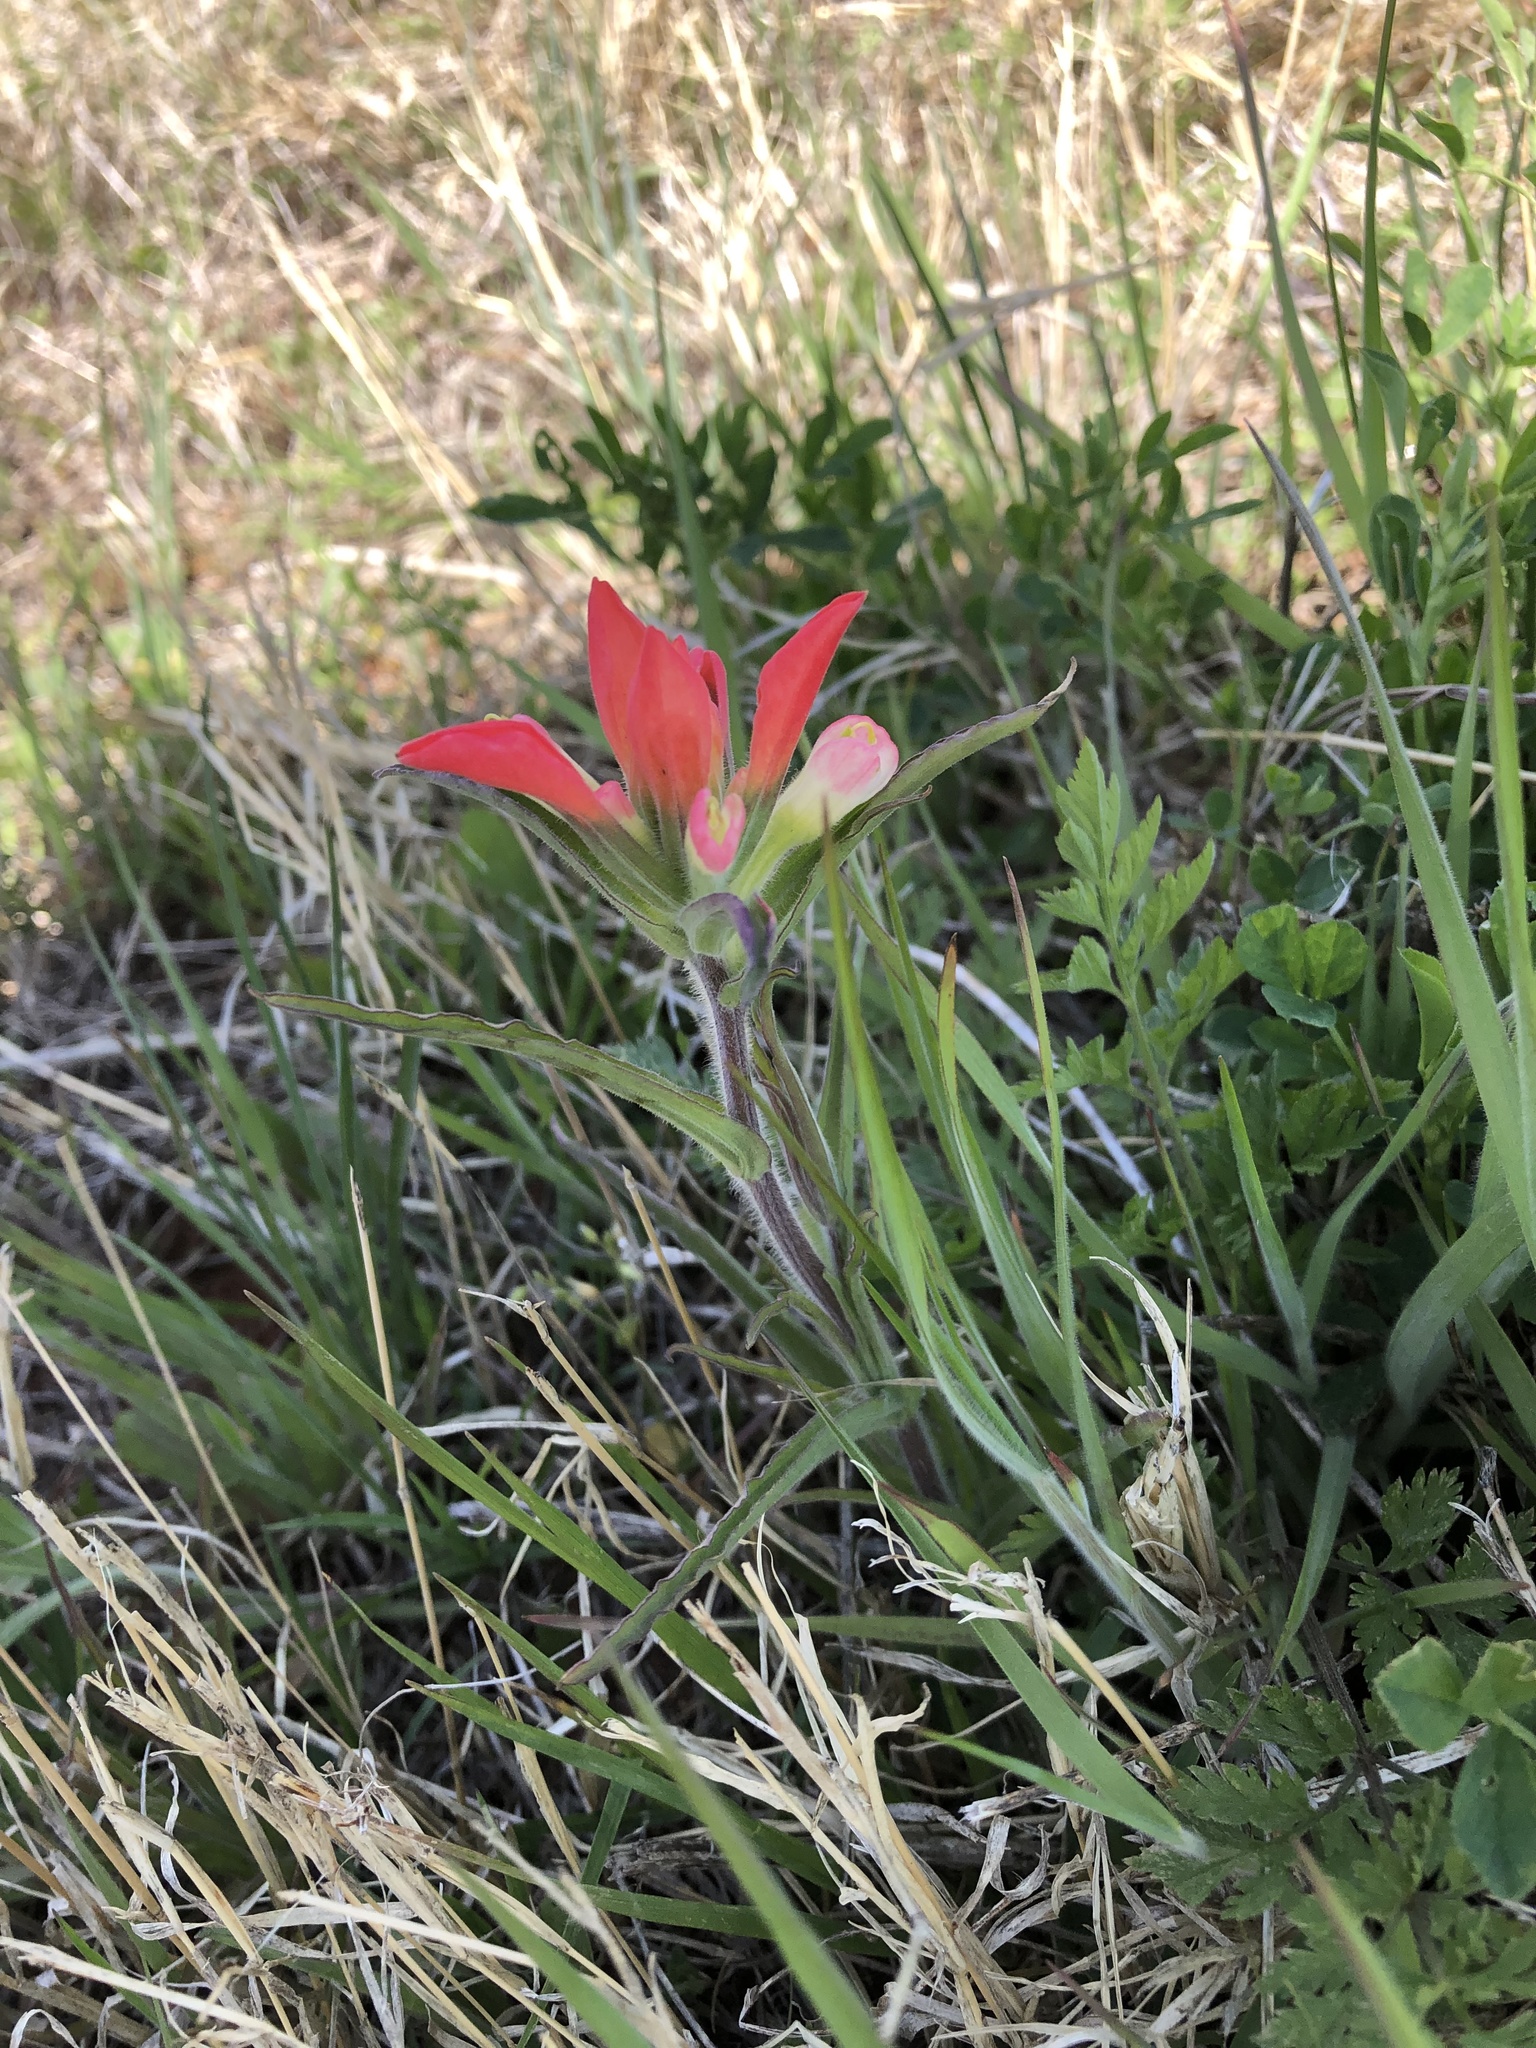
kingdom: Plantae
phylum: Tracheophyta
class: Magnoliopsida
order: Lamiales
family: Orobanchaceae
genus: Castilleja
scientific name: Castilleja indivisa
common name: Texas paintbrush
